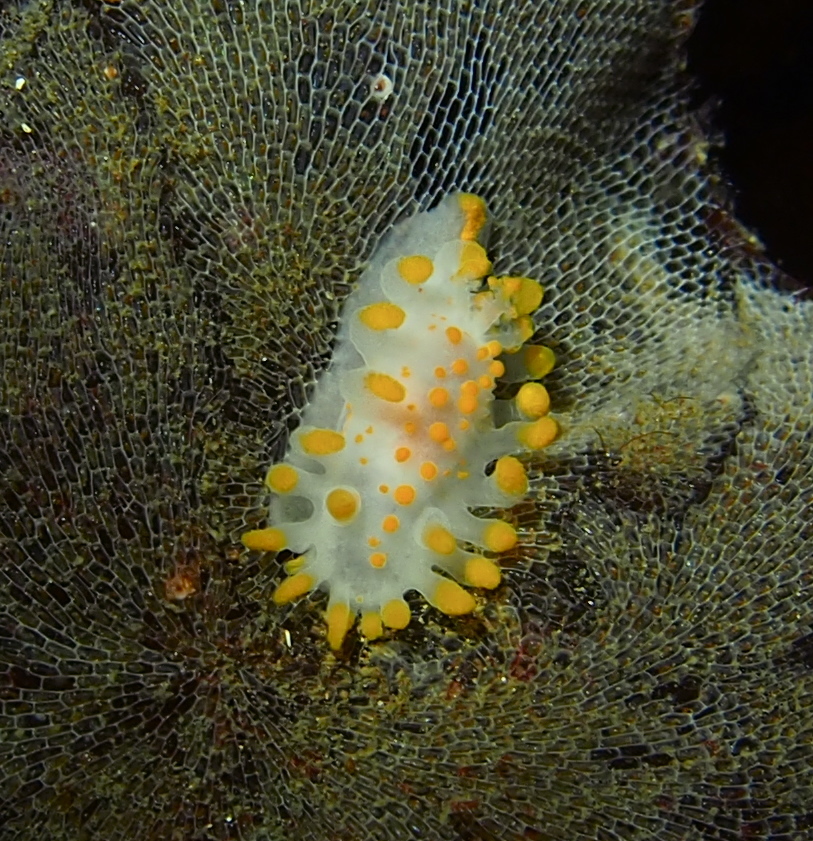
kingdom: Animalia
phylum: Mollusca
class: Gastropoda
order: Nudibranchia
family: Polyceridae
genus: Limacia
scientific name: Limacia clavigera
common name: Orange-clubbed sea slug
